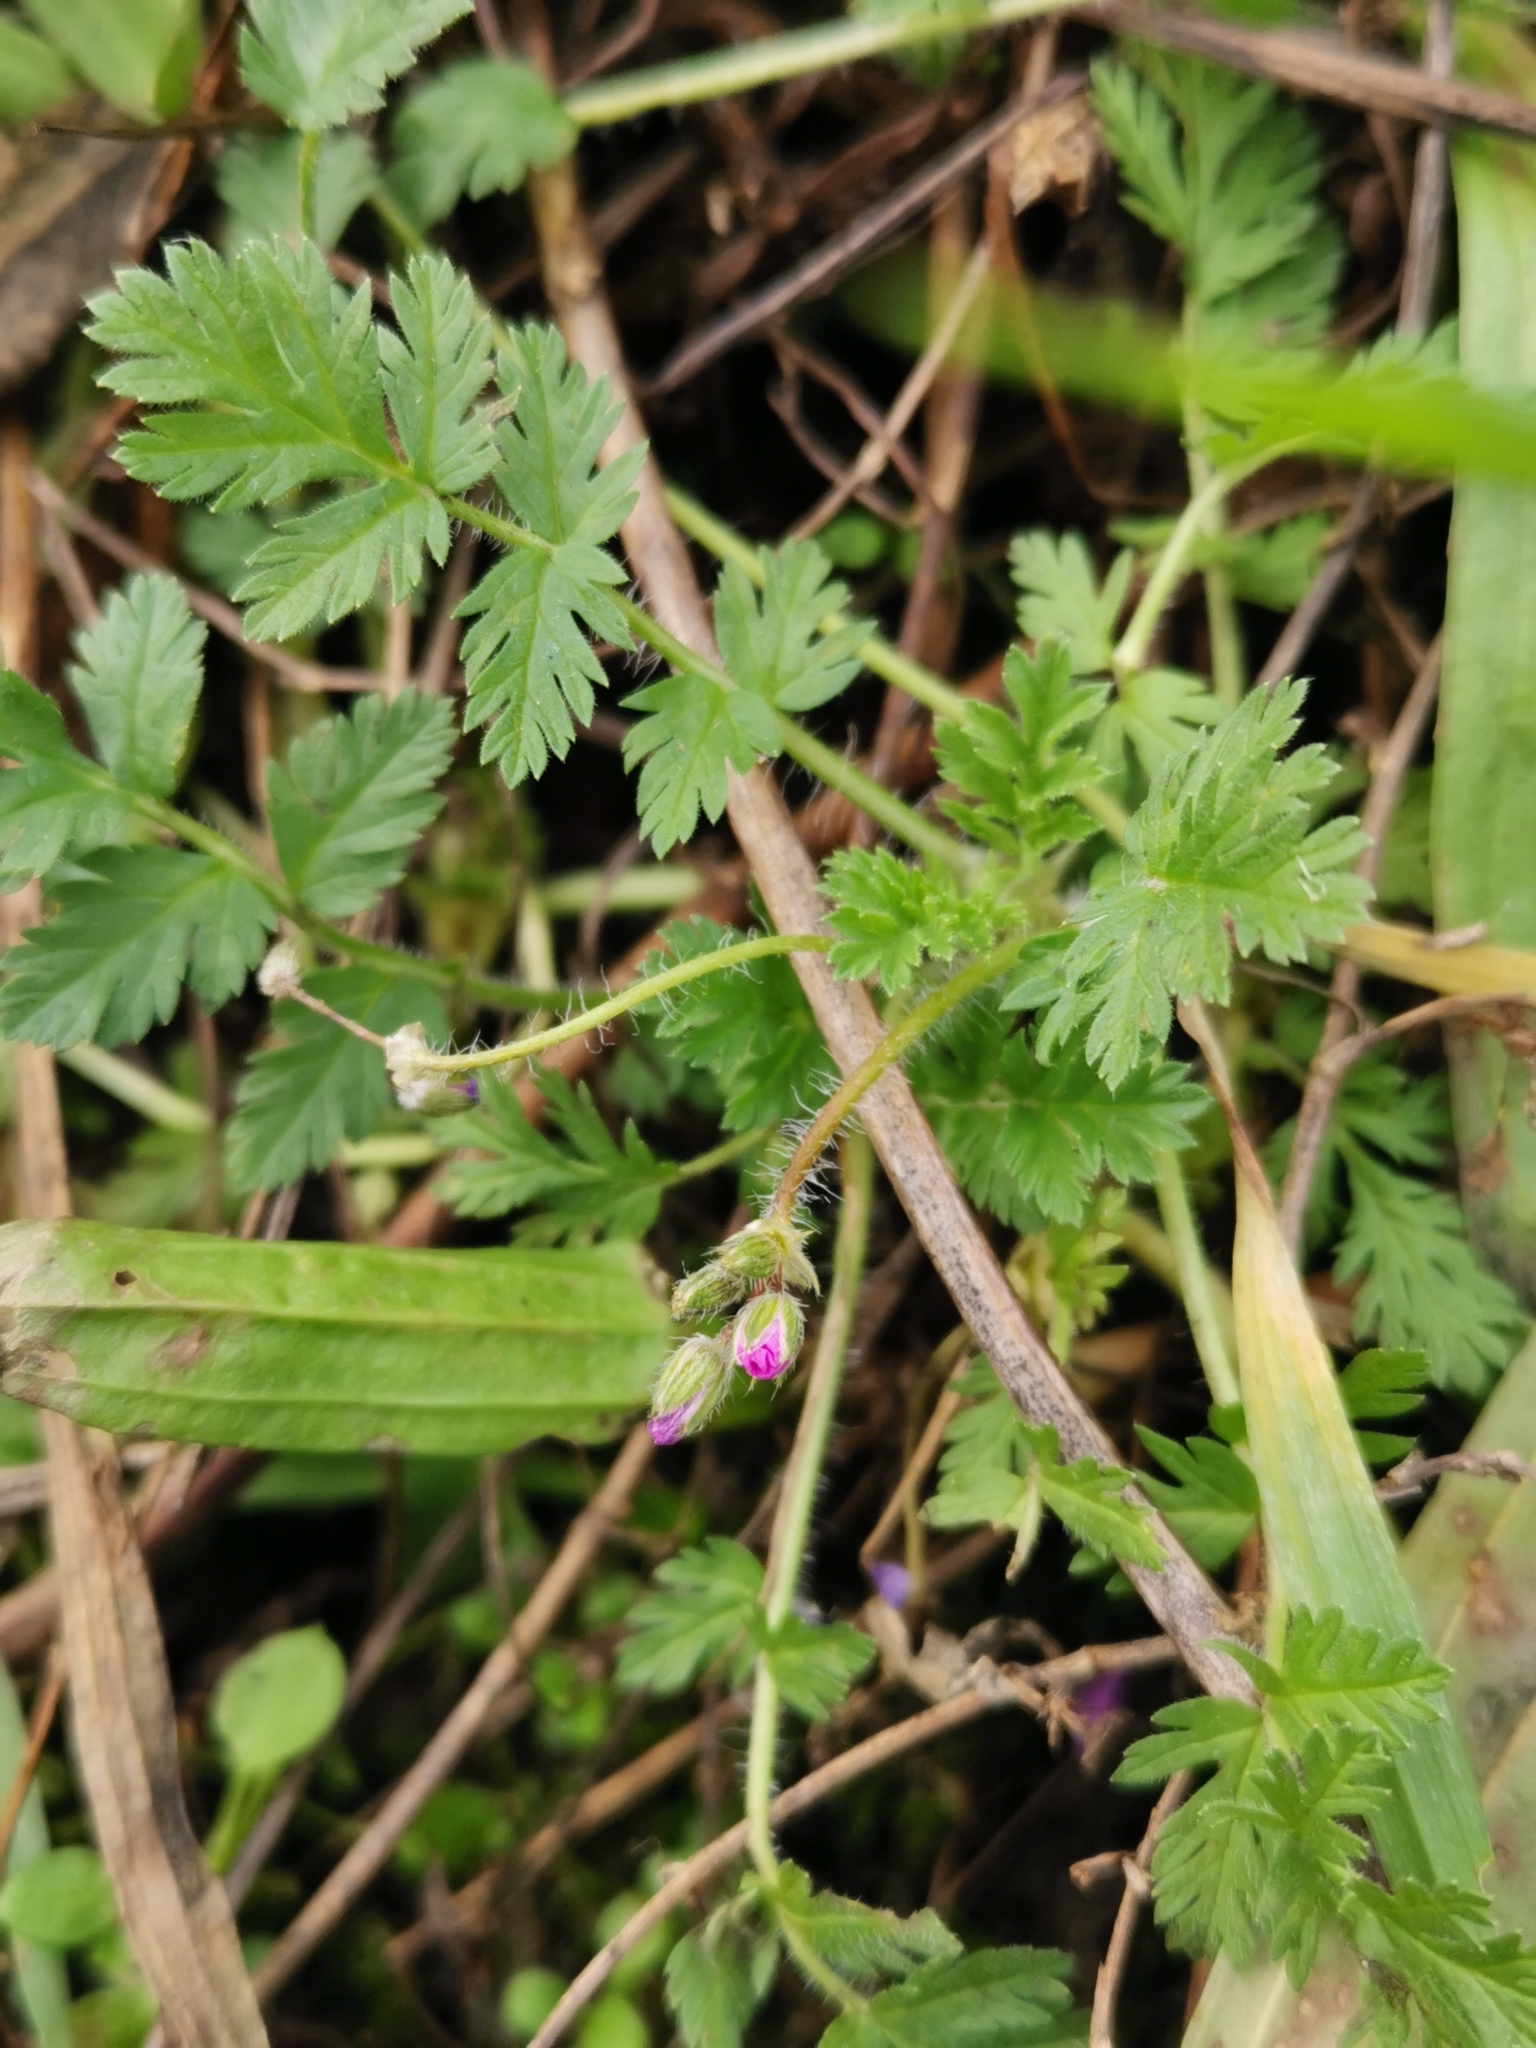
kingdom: Plantae
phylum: Tracheophyta
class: Magnoliopsida
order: Geraniales
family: Geraniaceae
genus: Erodium
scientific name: Erodium cicutarium
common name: Common stork's-bill
